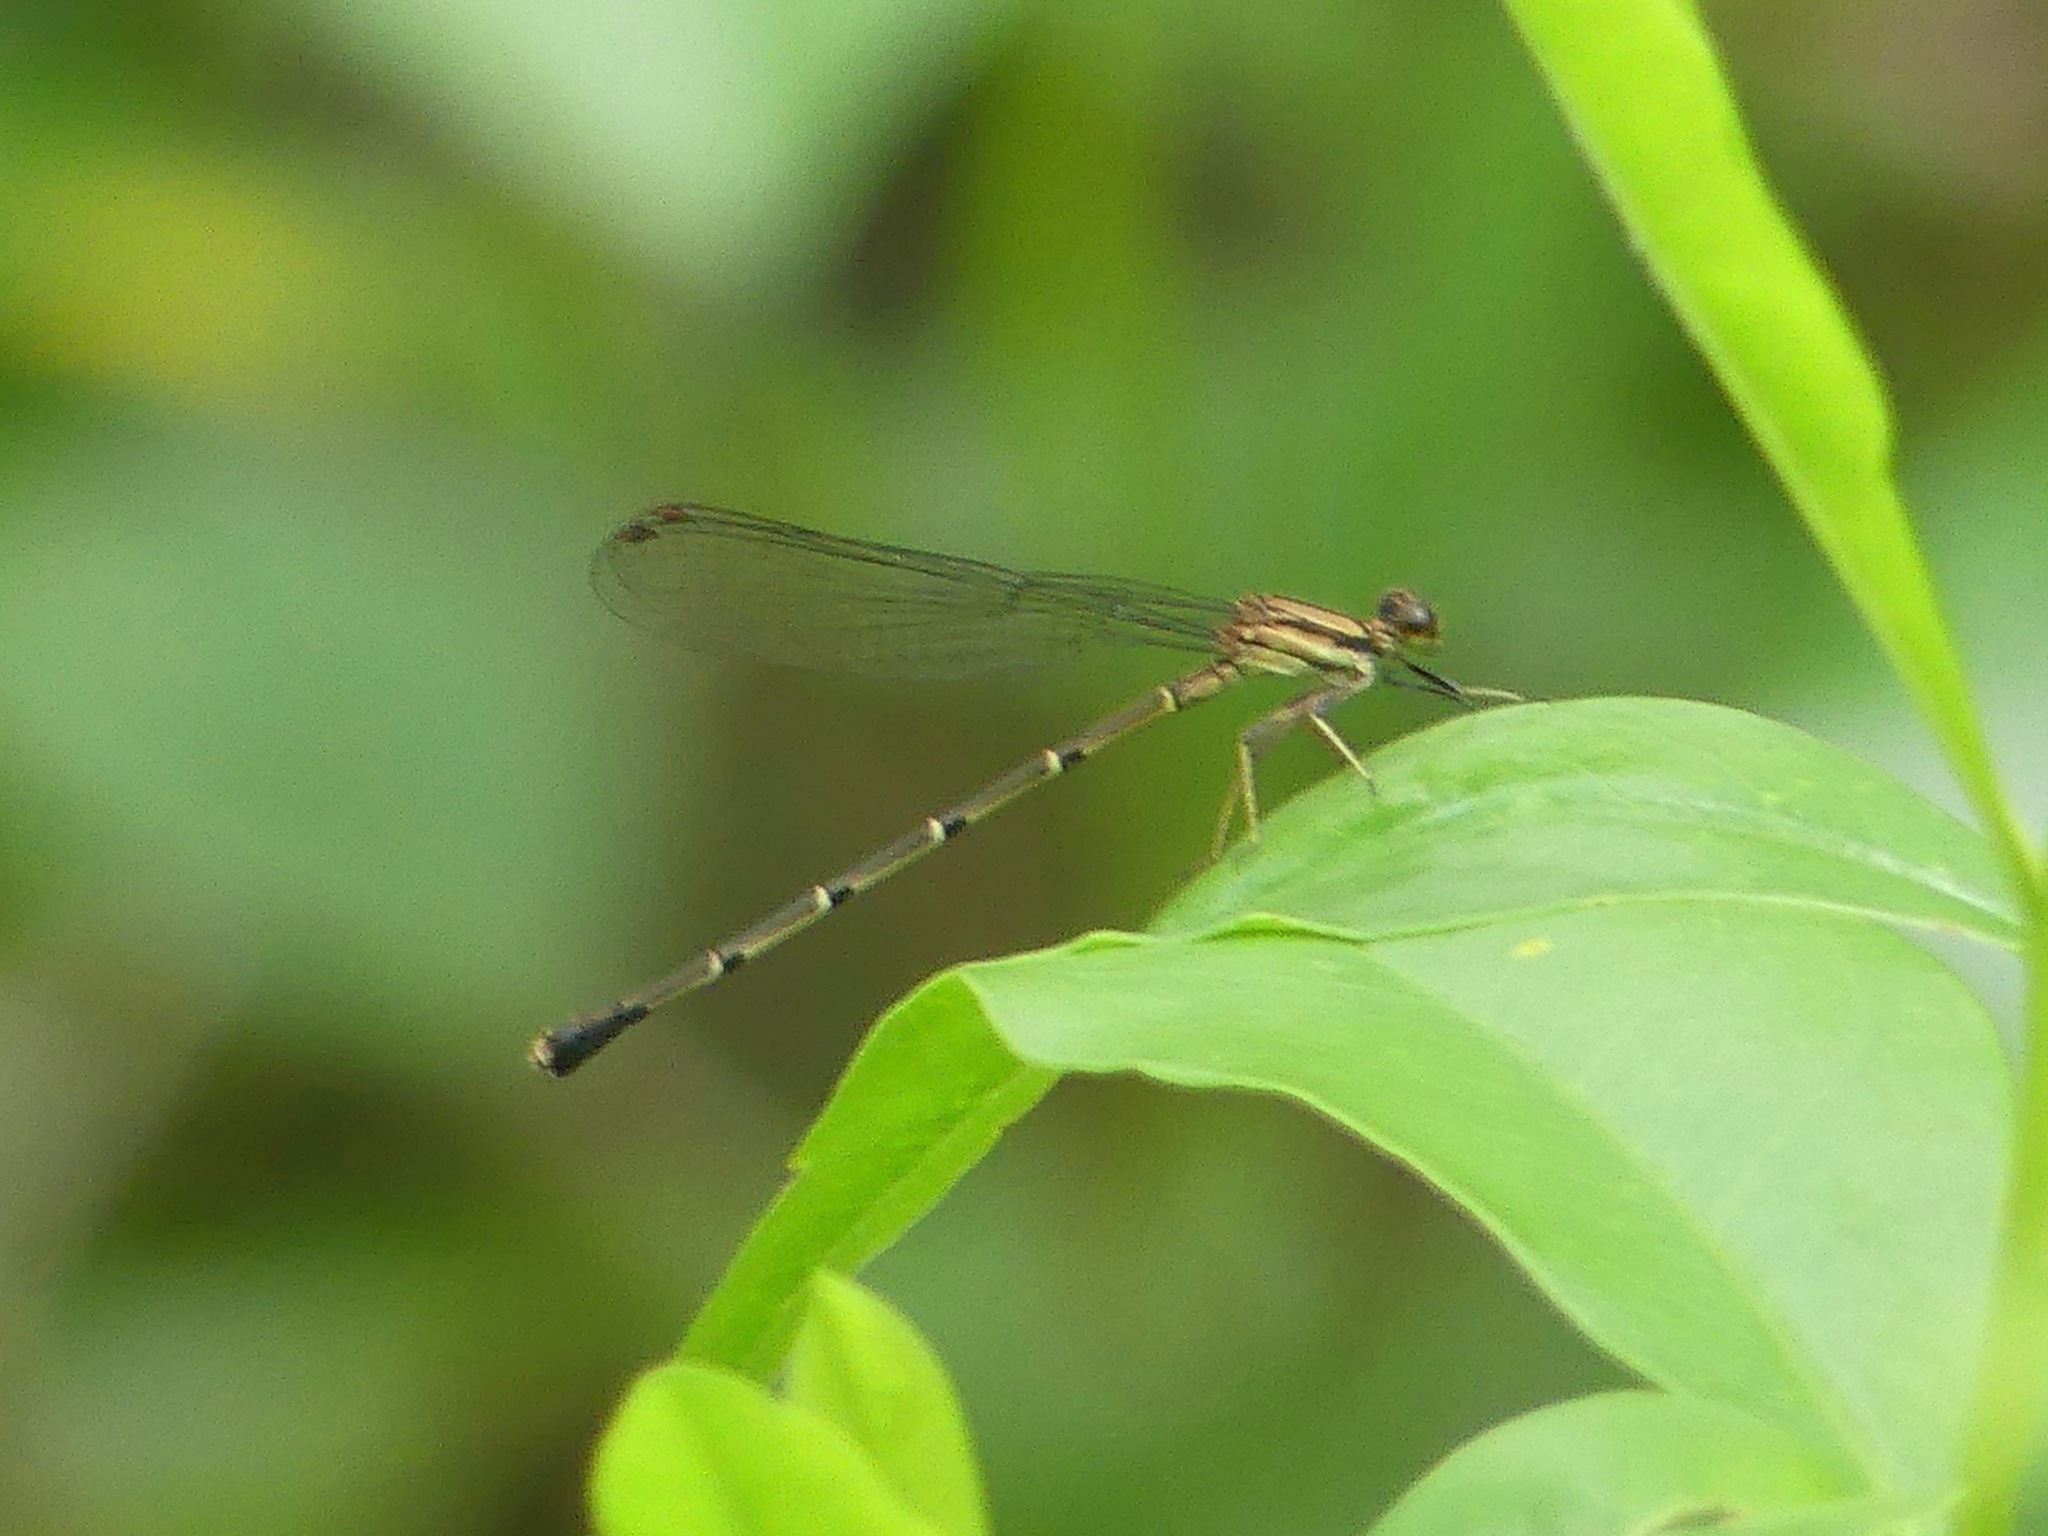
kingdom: Animalia
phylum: Arthropoda
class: Insecta
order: Odonata
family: Coenagrionidae
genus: Argia
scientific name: Argia tibialis
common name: Blue-tipped dancer
